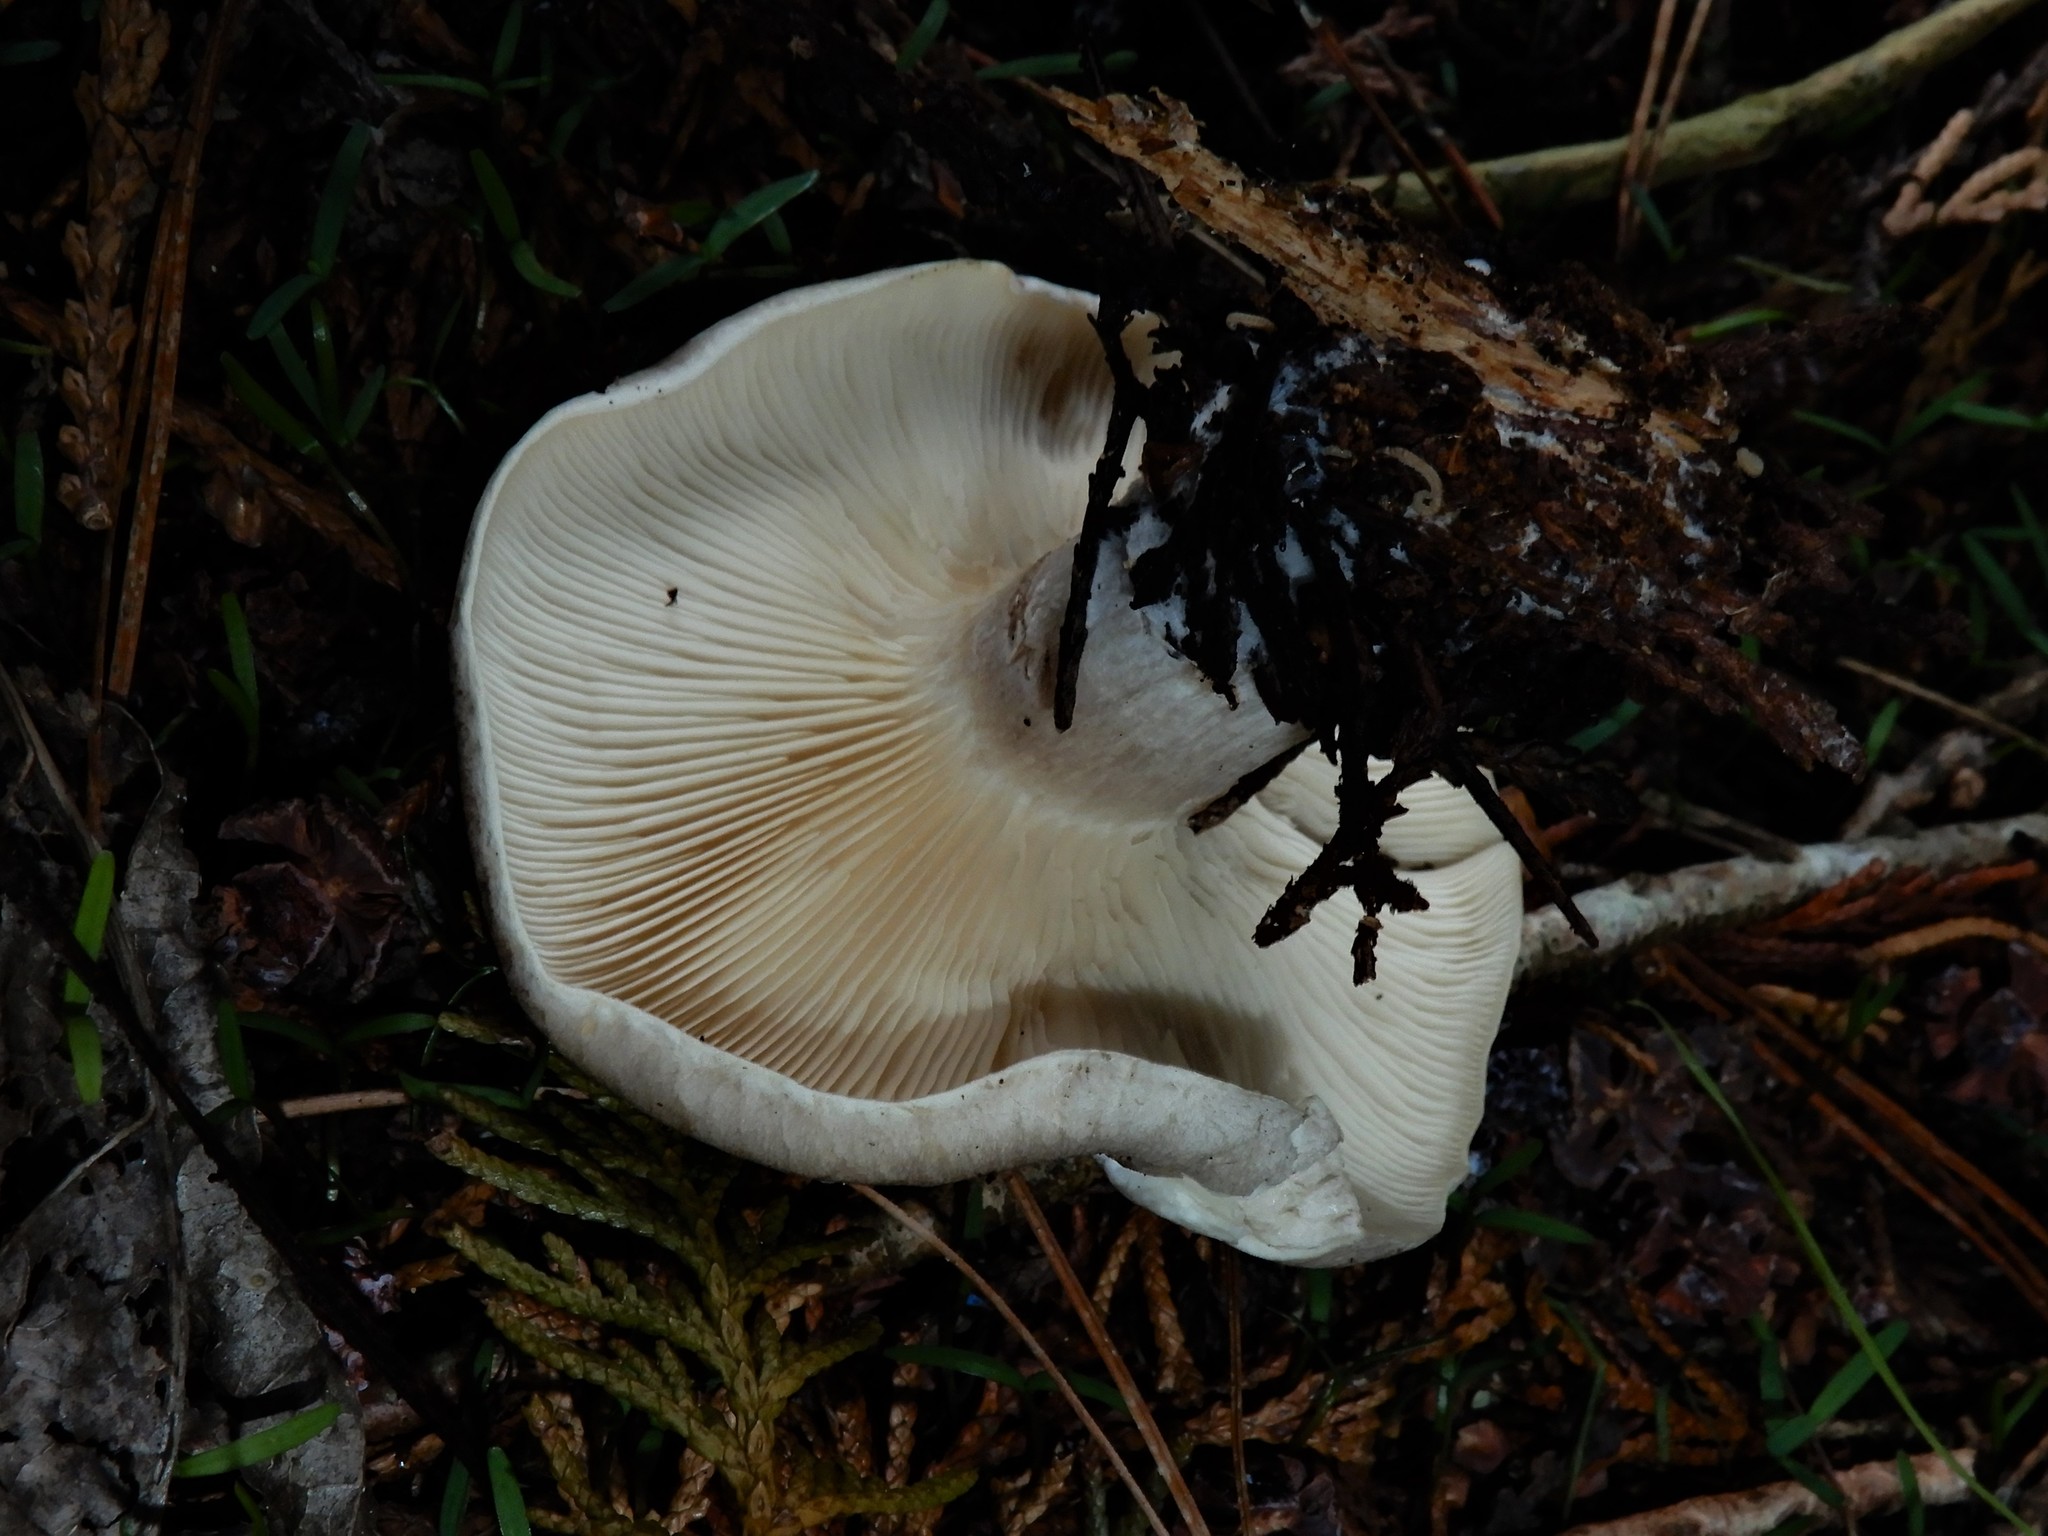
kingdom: Fungi
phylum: Basidiomycota
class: Agaricomycetes
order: Agaricales
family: Tricholomataceae
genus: Clitocybe
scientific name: Clitocybe nebularis
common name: Clouded agaric
